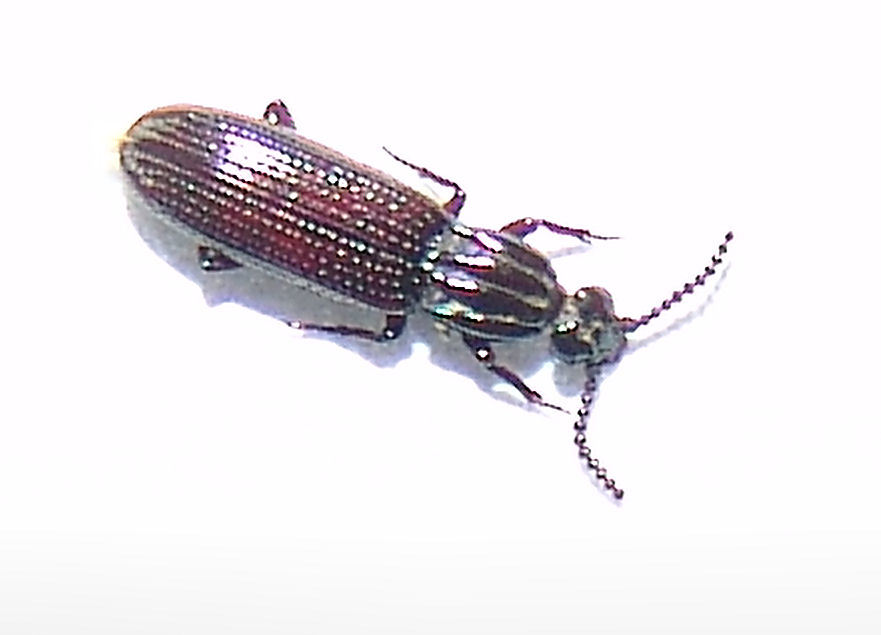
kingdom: Animalia
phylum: Arthropoda
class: Insecta
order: Coleoptera
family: Carabidae
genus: Clinidium
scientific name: Clinidium baldufi
